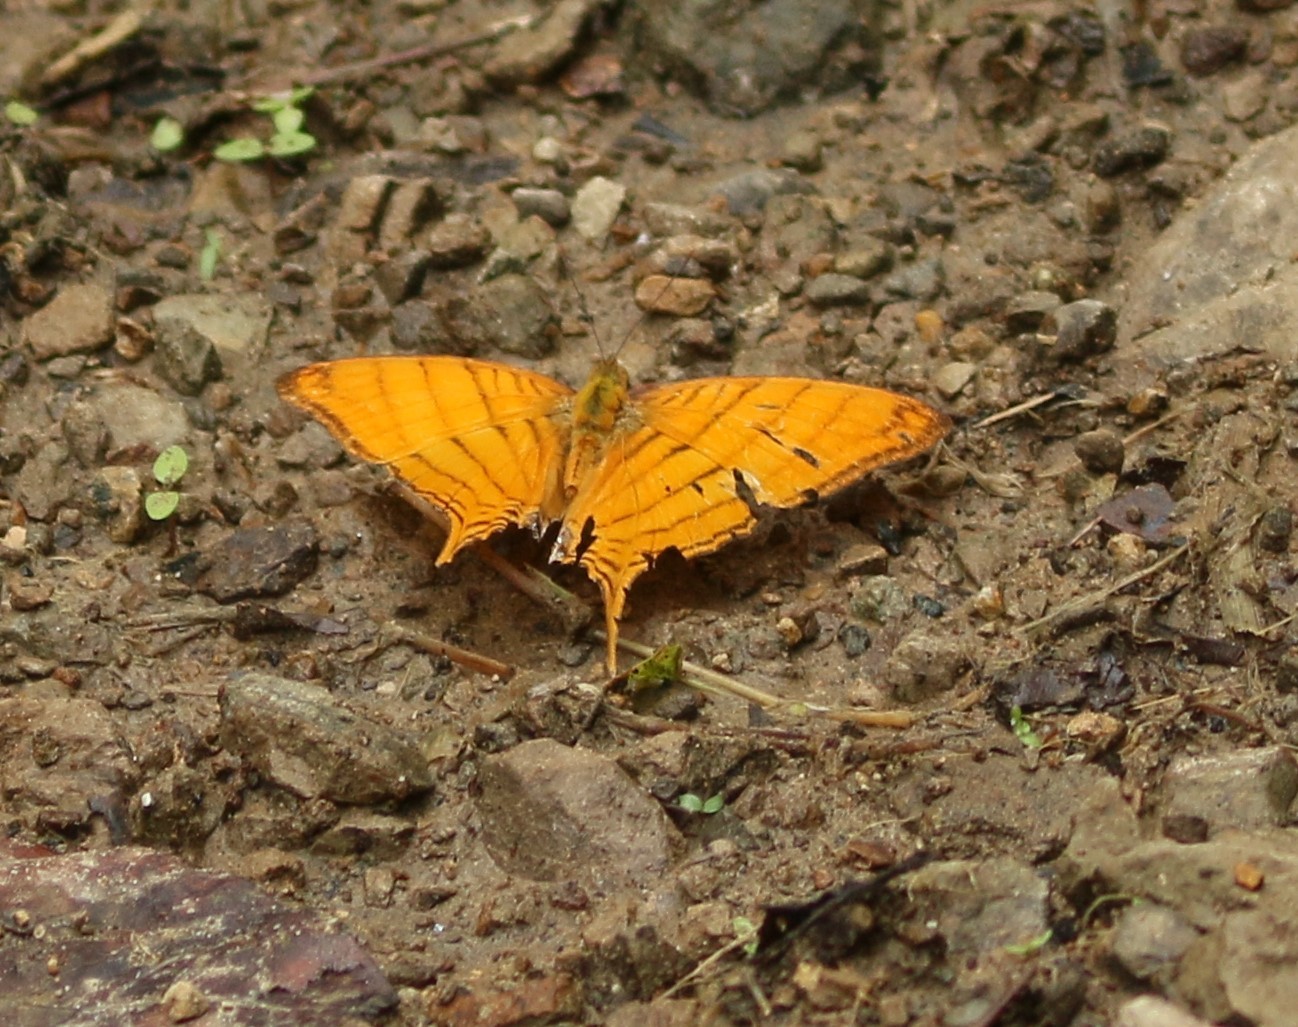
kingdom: Animalia
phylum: Arthropoda
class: Insecta
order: Lepidoptera
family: Nymphalidae
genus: Marpesia
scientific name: Marpesia berania
